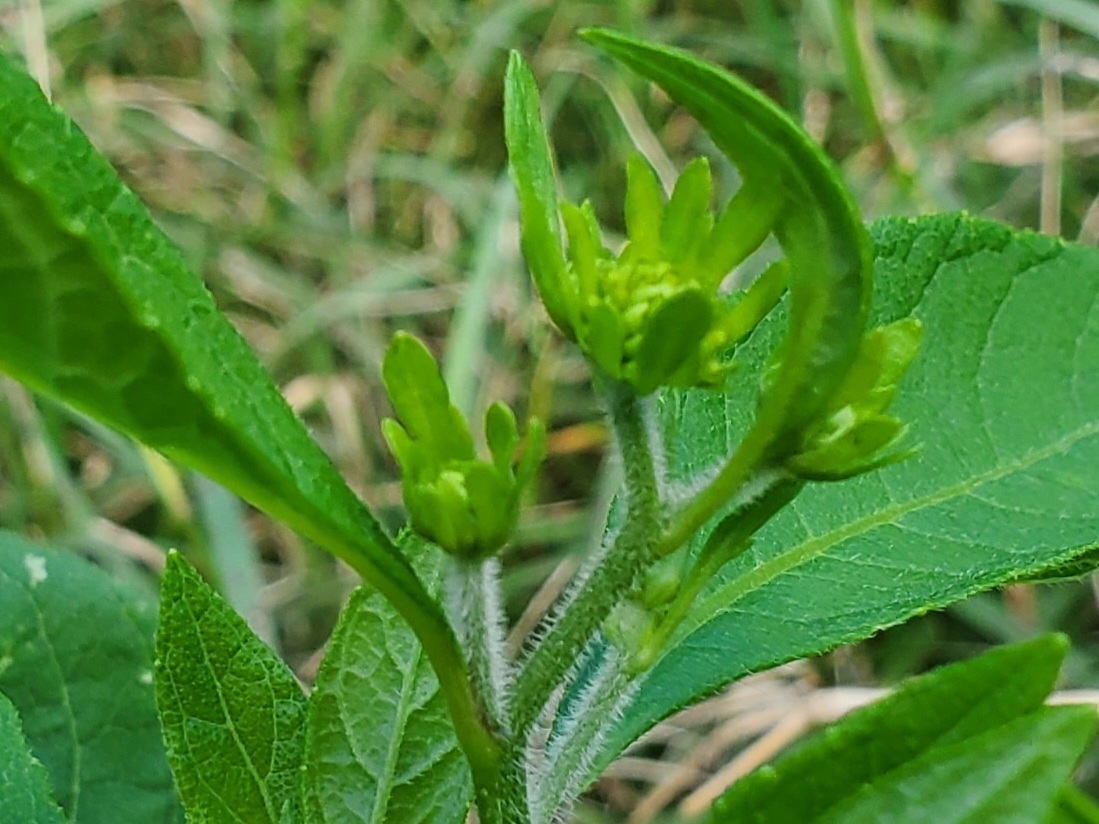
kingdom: Plantae
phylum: Tracheophyta
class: Magnoliopsida
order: Asterales
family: Asteraceae
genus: Verbesina
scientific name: Verbesina alternifolia
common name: Wingstem
